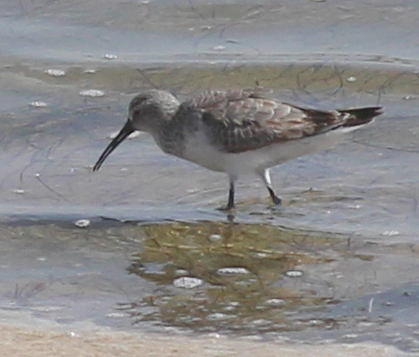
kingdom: Animalia
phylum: Chordata
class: Aves
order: Charadriiformes
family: Scolopacidae
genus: Calidris
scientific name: Calidris ferruginea
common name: Curlew sandpiper
